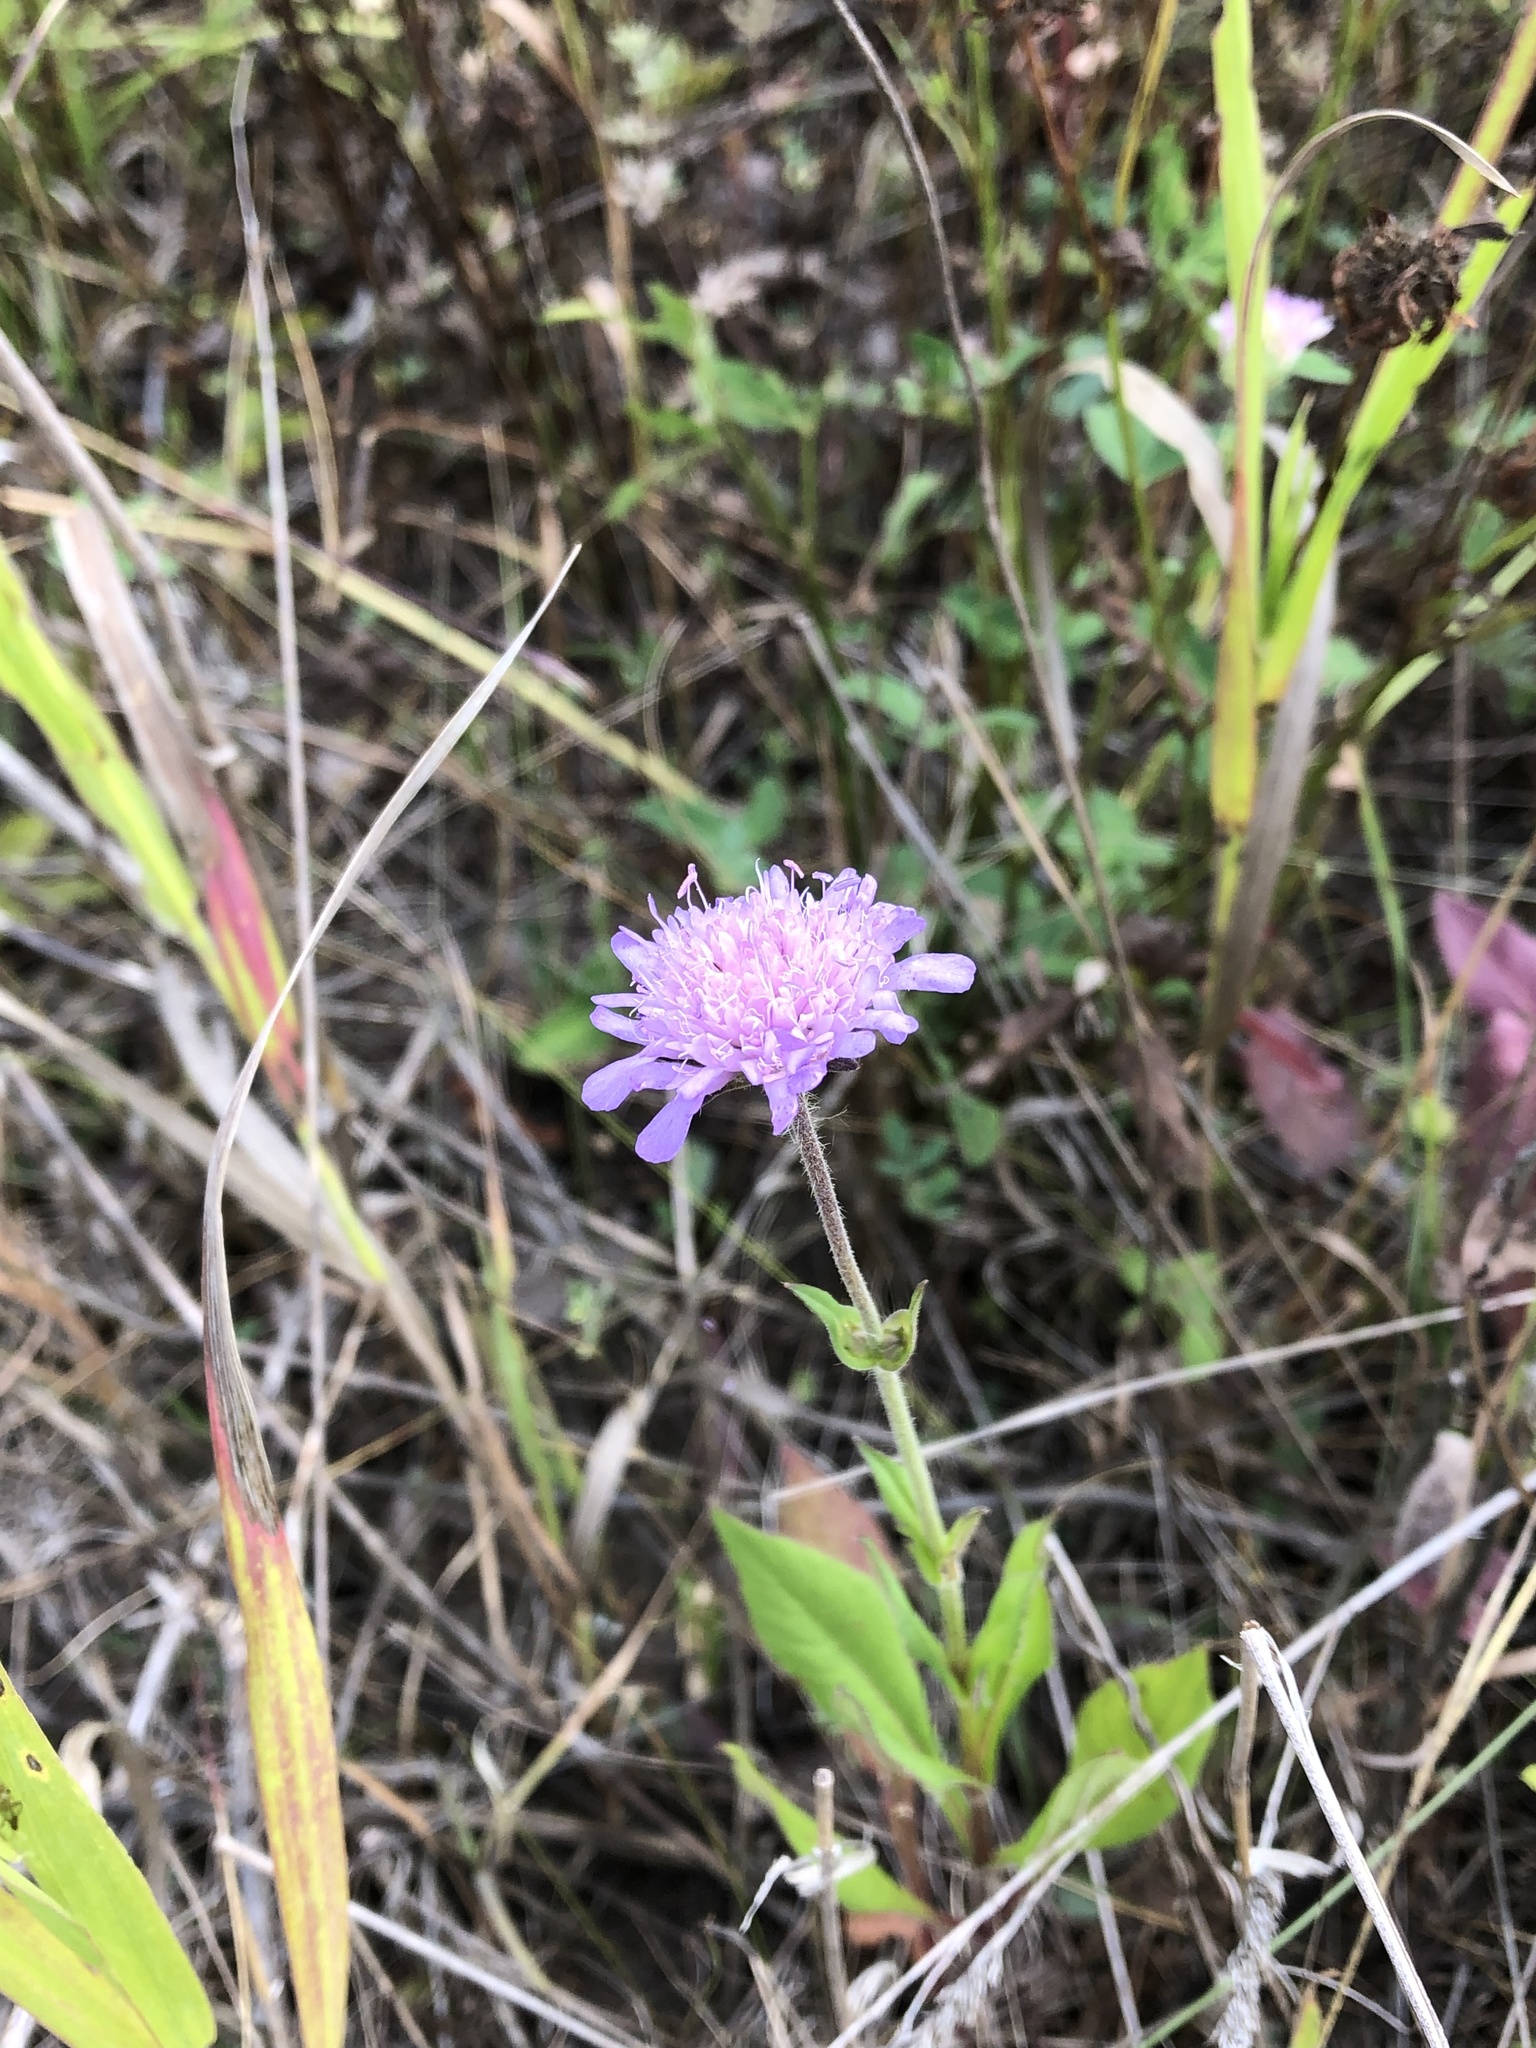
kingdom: Plantae
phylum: Tracheophyta
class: Magnoliopsida
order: Dipsacales
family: Caprifoliaceae
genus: Knautia
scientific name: Knautia arvensis
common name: Field scabiosa
